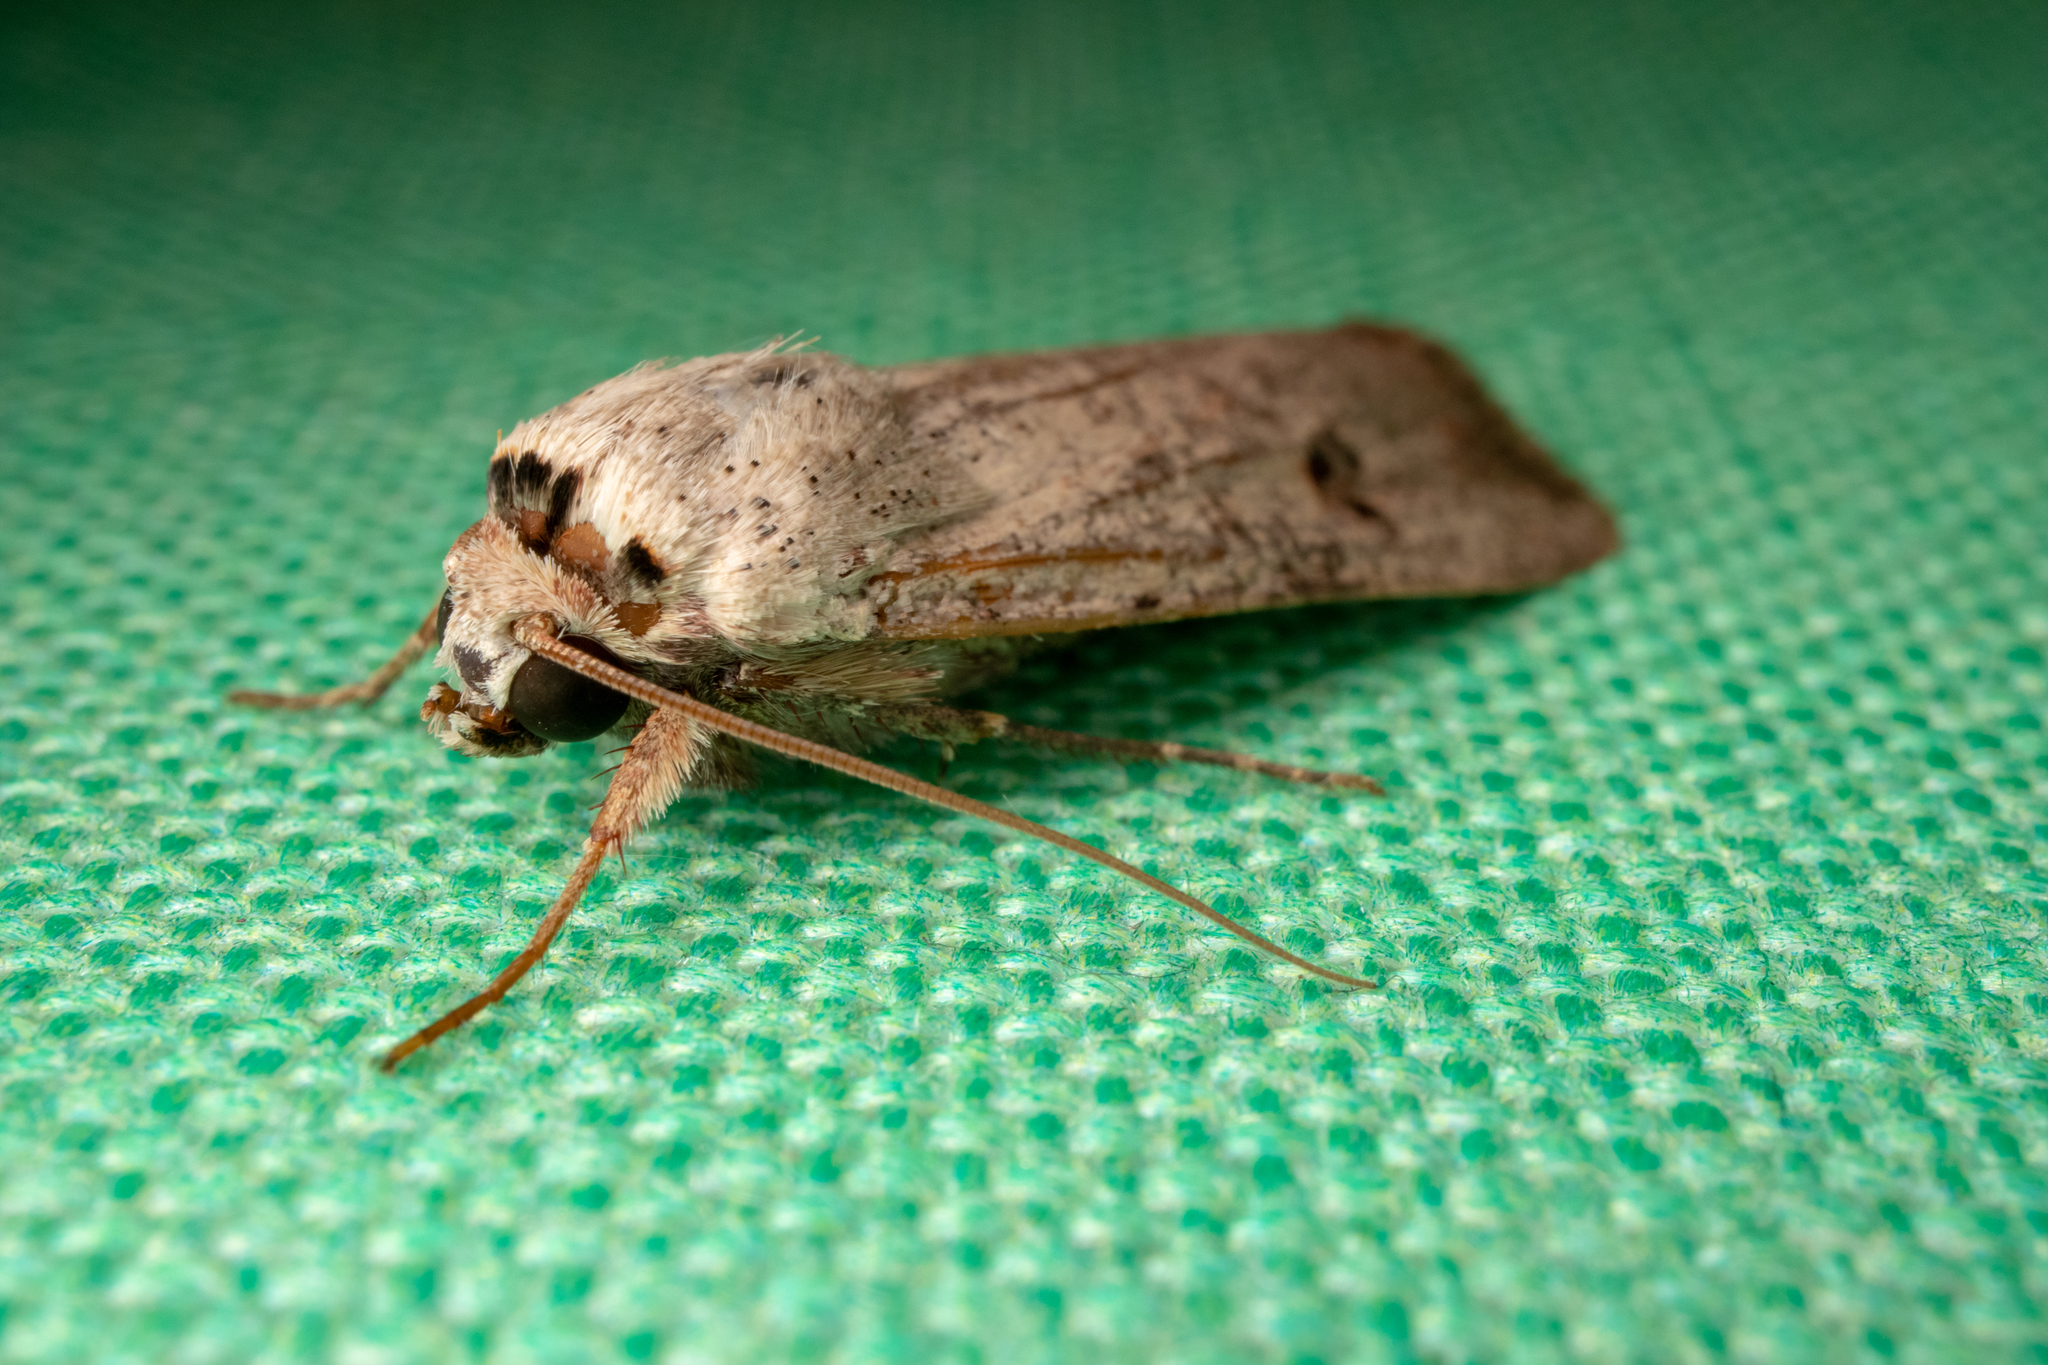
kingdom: Animalia
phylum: Arthropoda
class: Insecta
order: Lepidoptera
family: Noctuidae
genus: Anicla
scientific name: Anicla infecta
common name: Green cutworm
